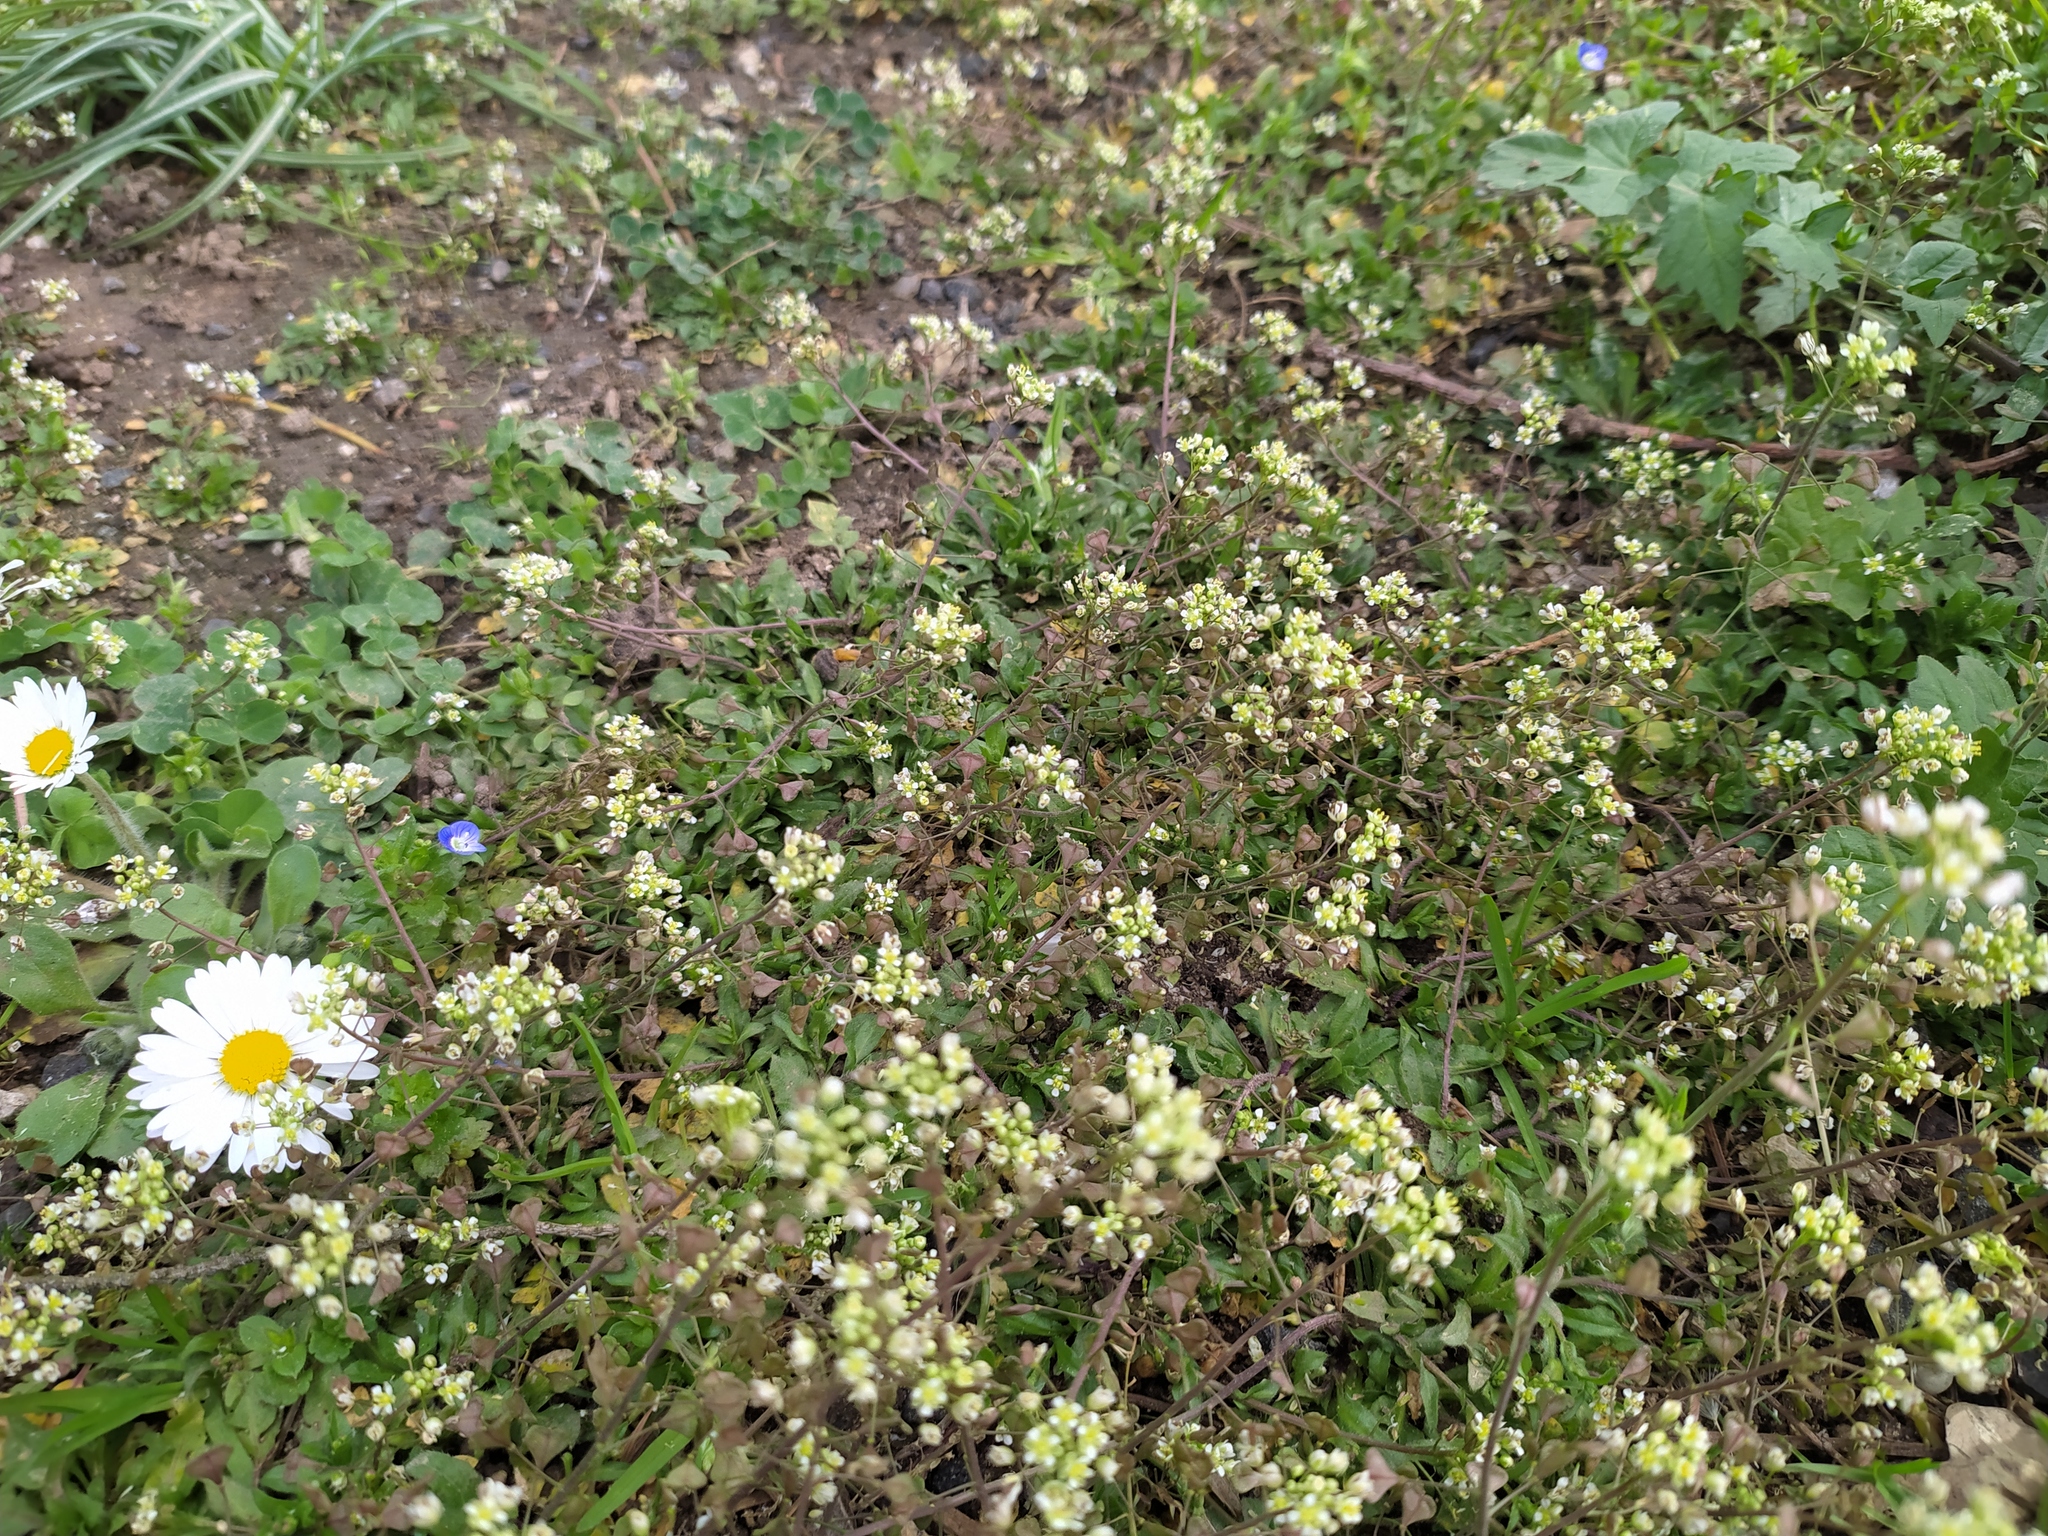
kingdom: Plantae
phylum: Tracheophyta
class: Magnoliopsida
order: Brassicales
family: Brassicaceae
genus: Capsella
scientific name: Capsella rubella
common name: Pink shepherd's-purse
